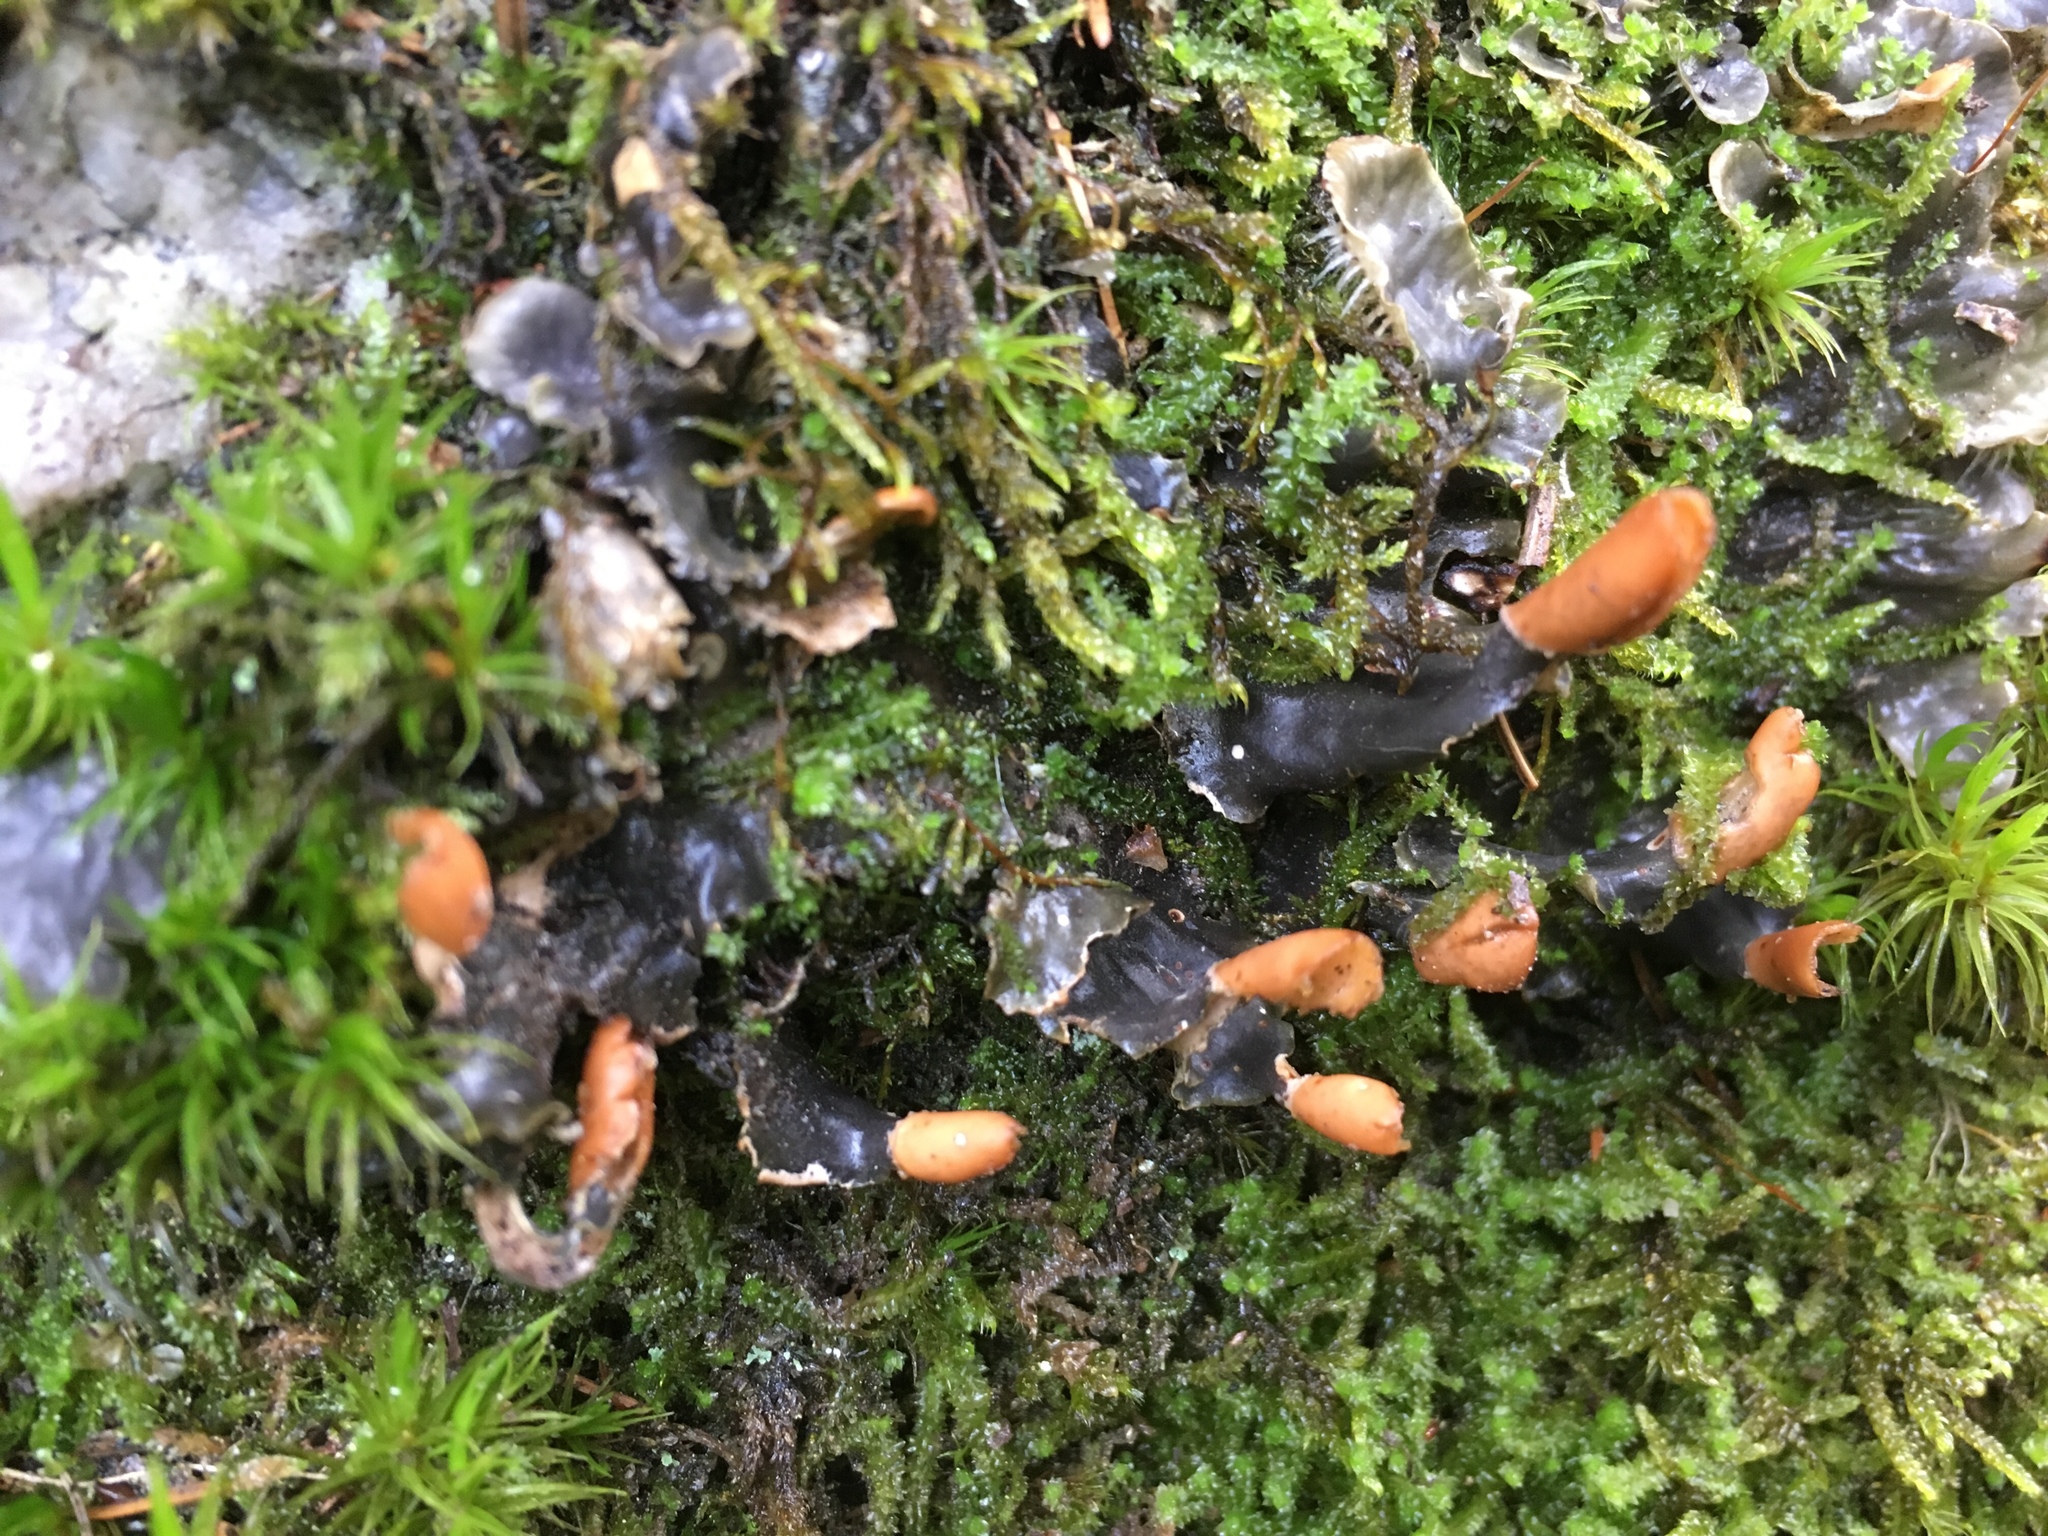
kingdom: Fungi
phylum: Ascomycota
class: Lecanoromycetes
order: Peltigerales
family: Peltigeraceae
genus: Peltigera
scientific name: Peltigera
